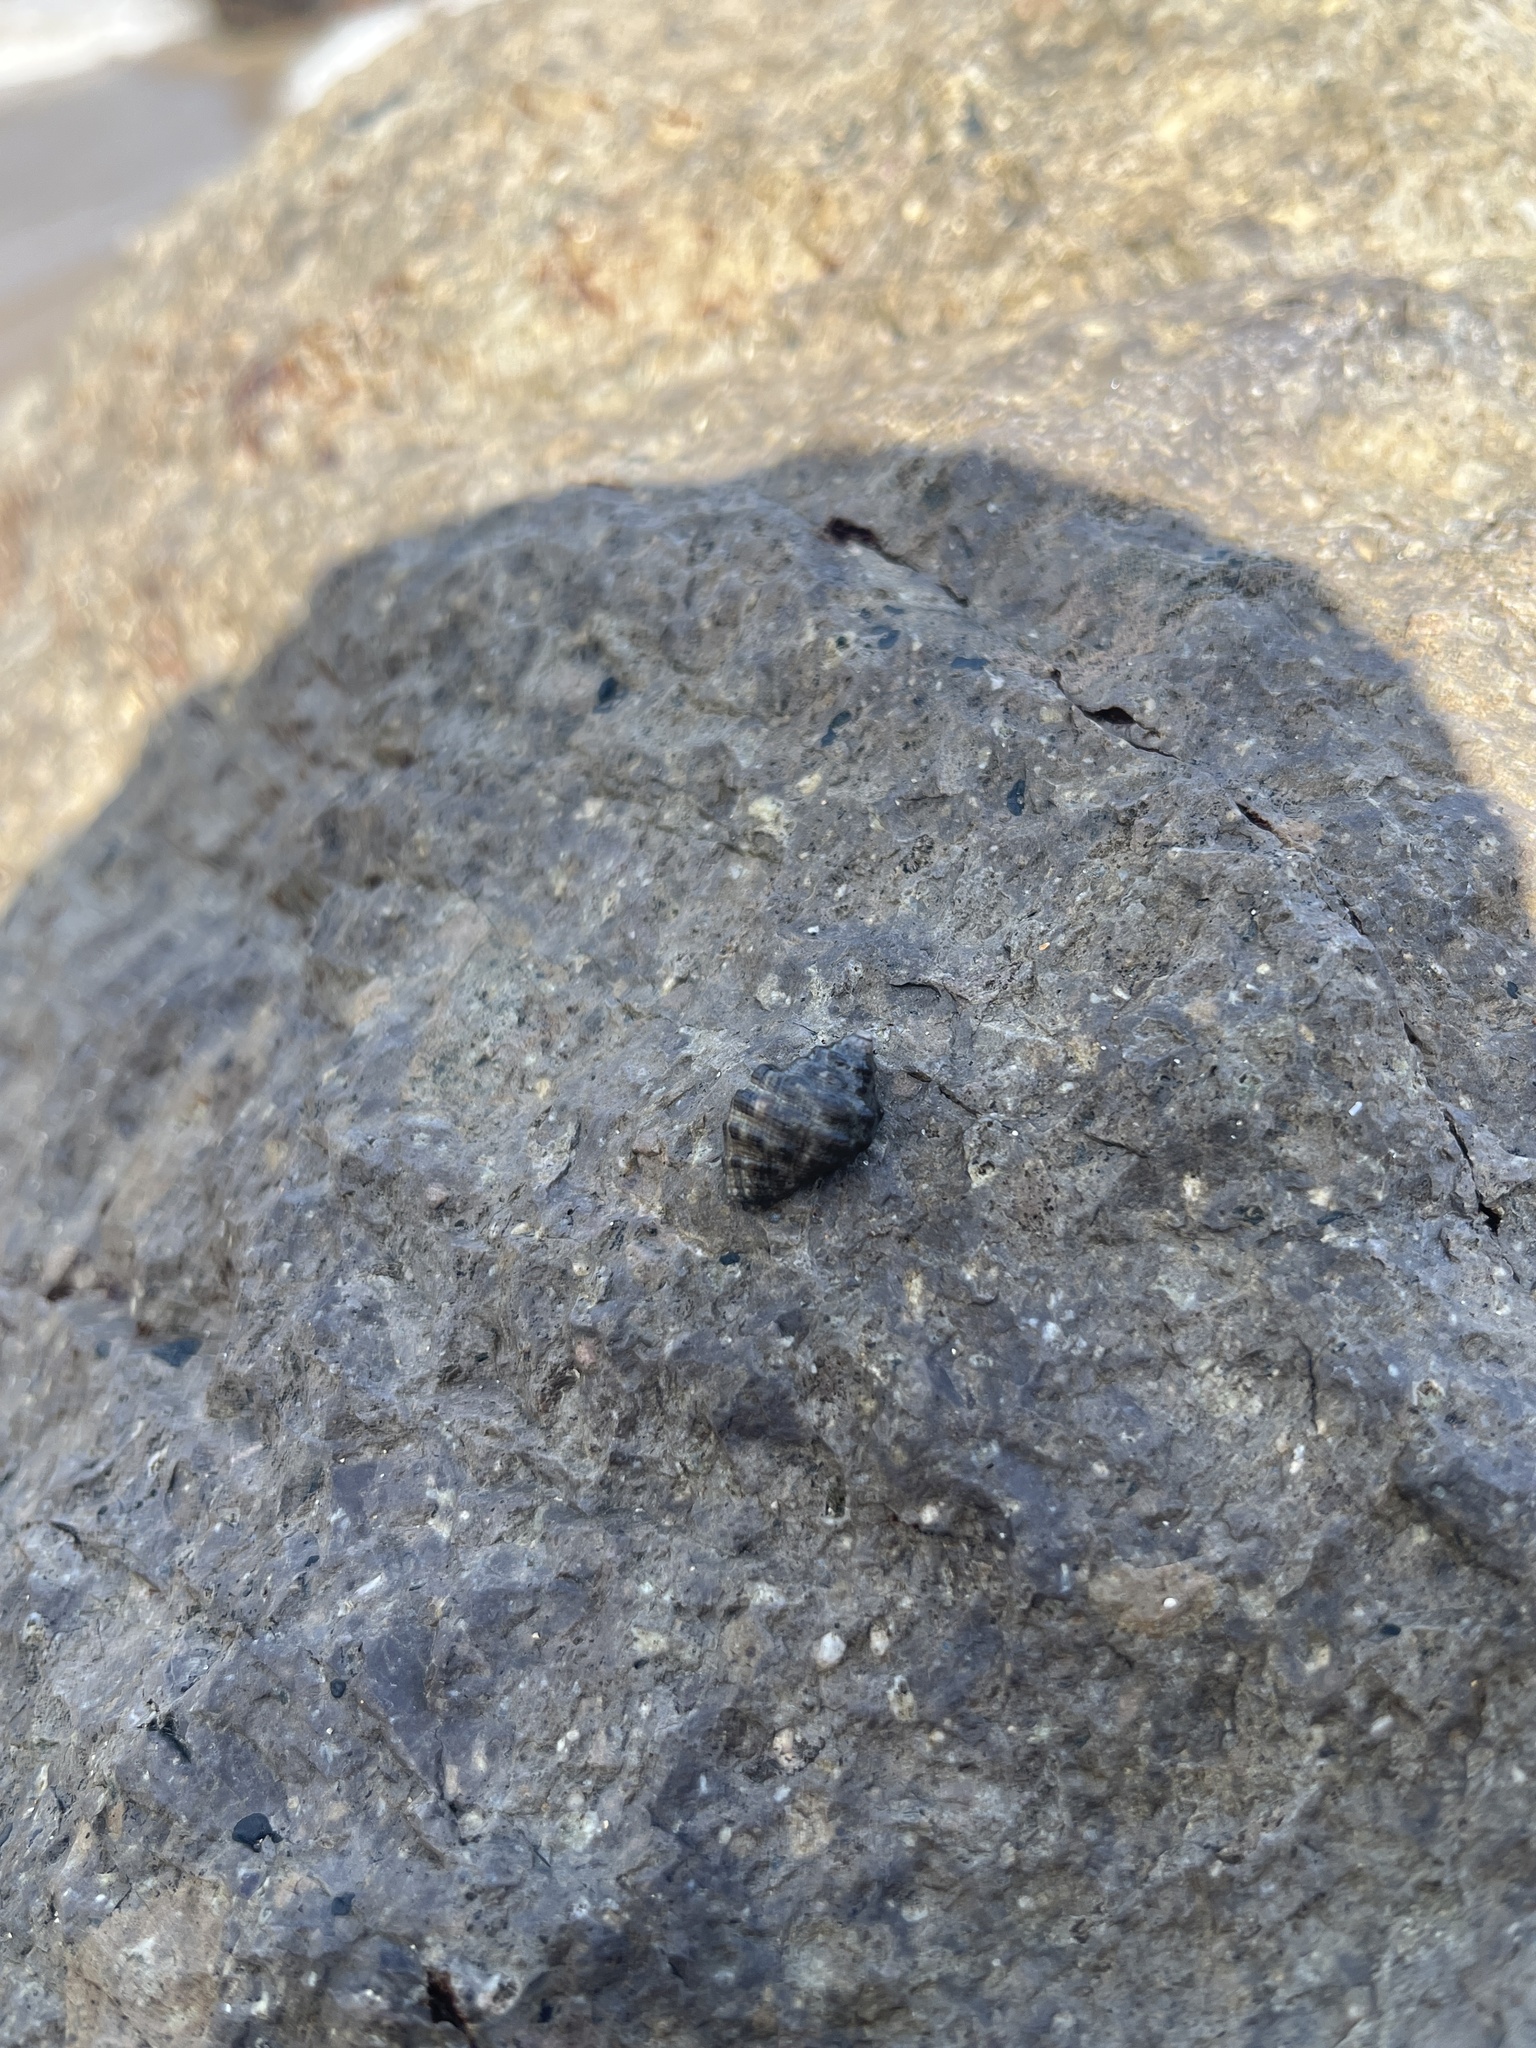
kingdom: Animalia
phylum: Mollusca
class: Gastropoda
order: Neogastropoda
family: Muricidae
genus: Reishia
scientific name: Reishia clavigera
